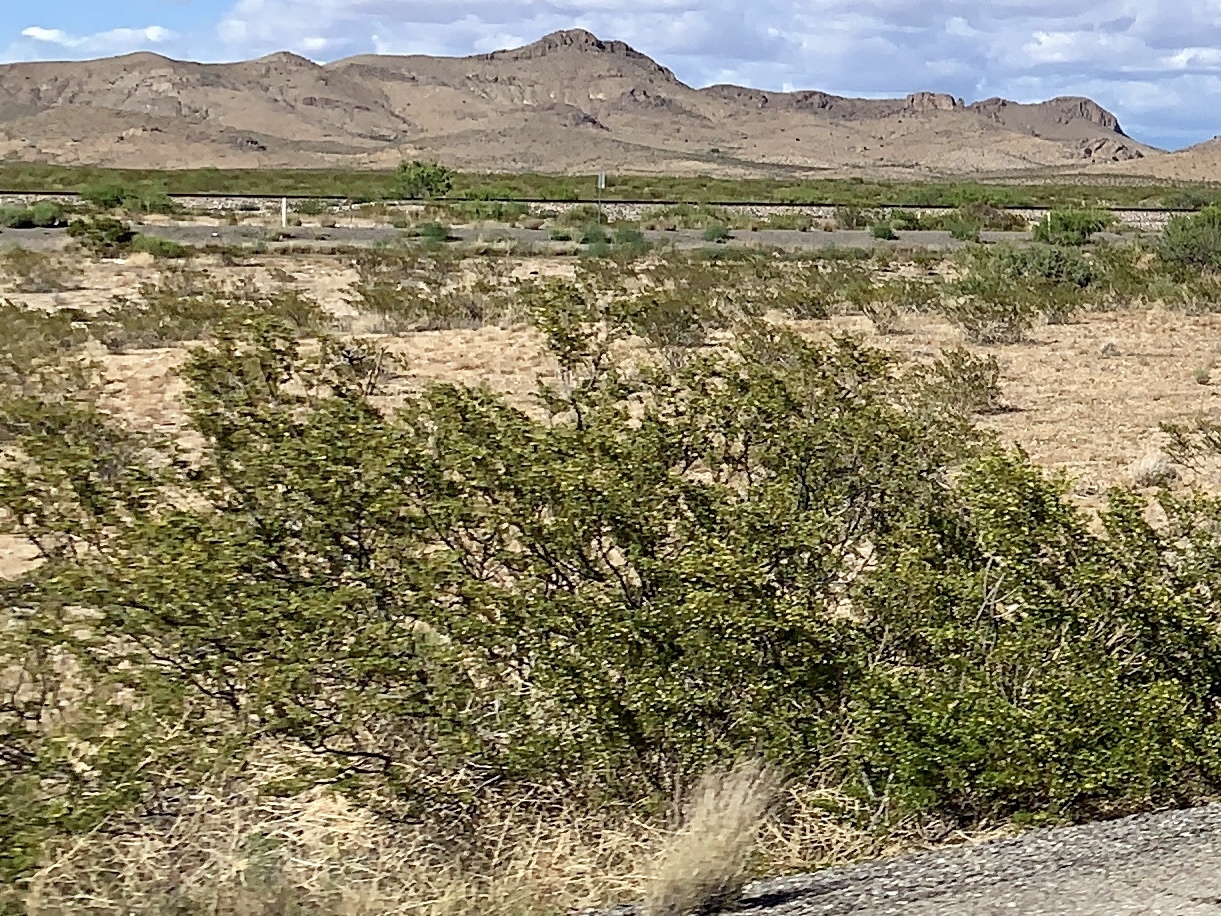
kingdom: Plantae
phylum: Tracheophyta
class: Magnoliopsida
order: Zygophyllales
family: Zygophyllaceae
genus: Larrea
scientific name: Larrea tridentata
